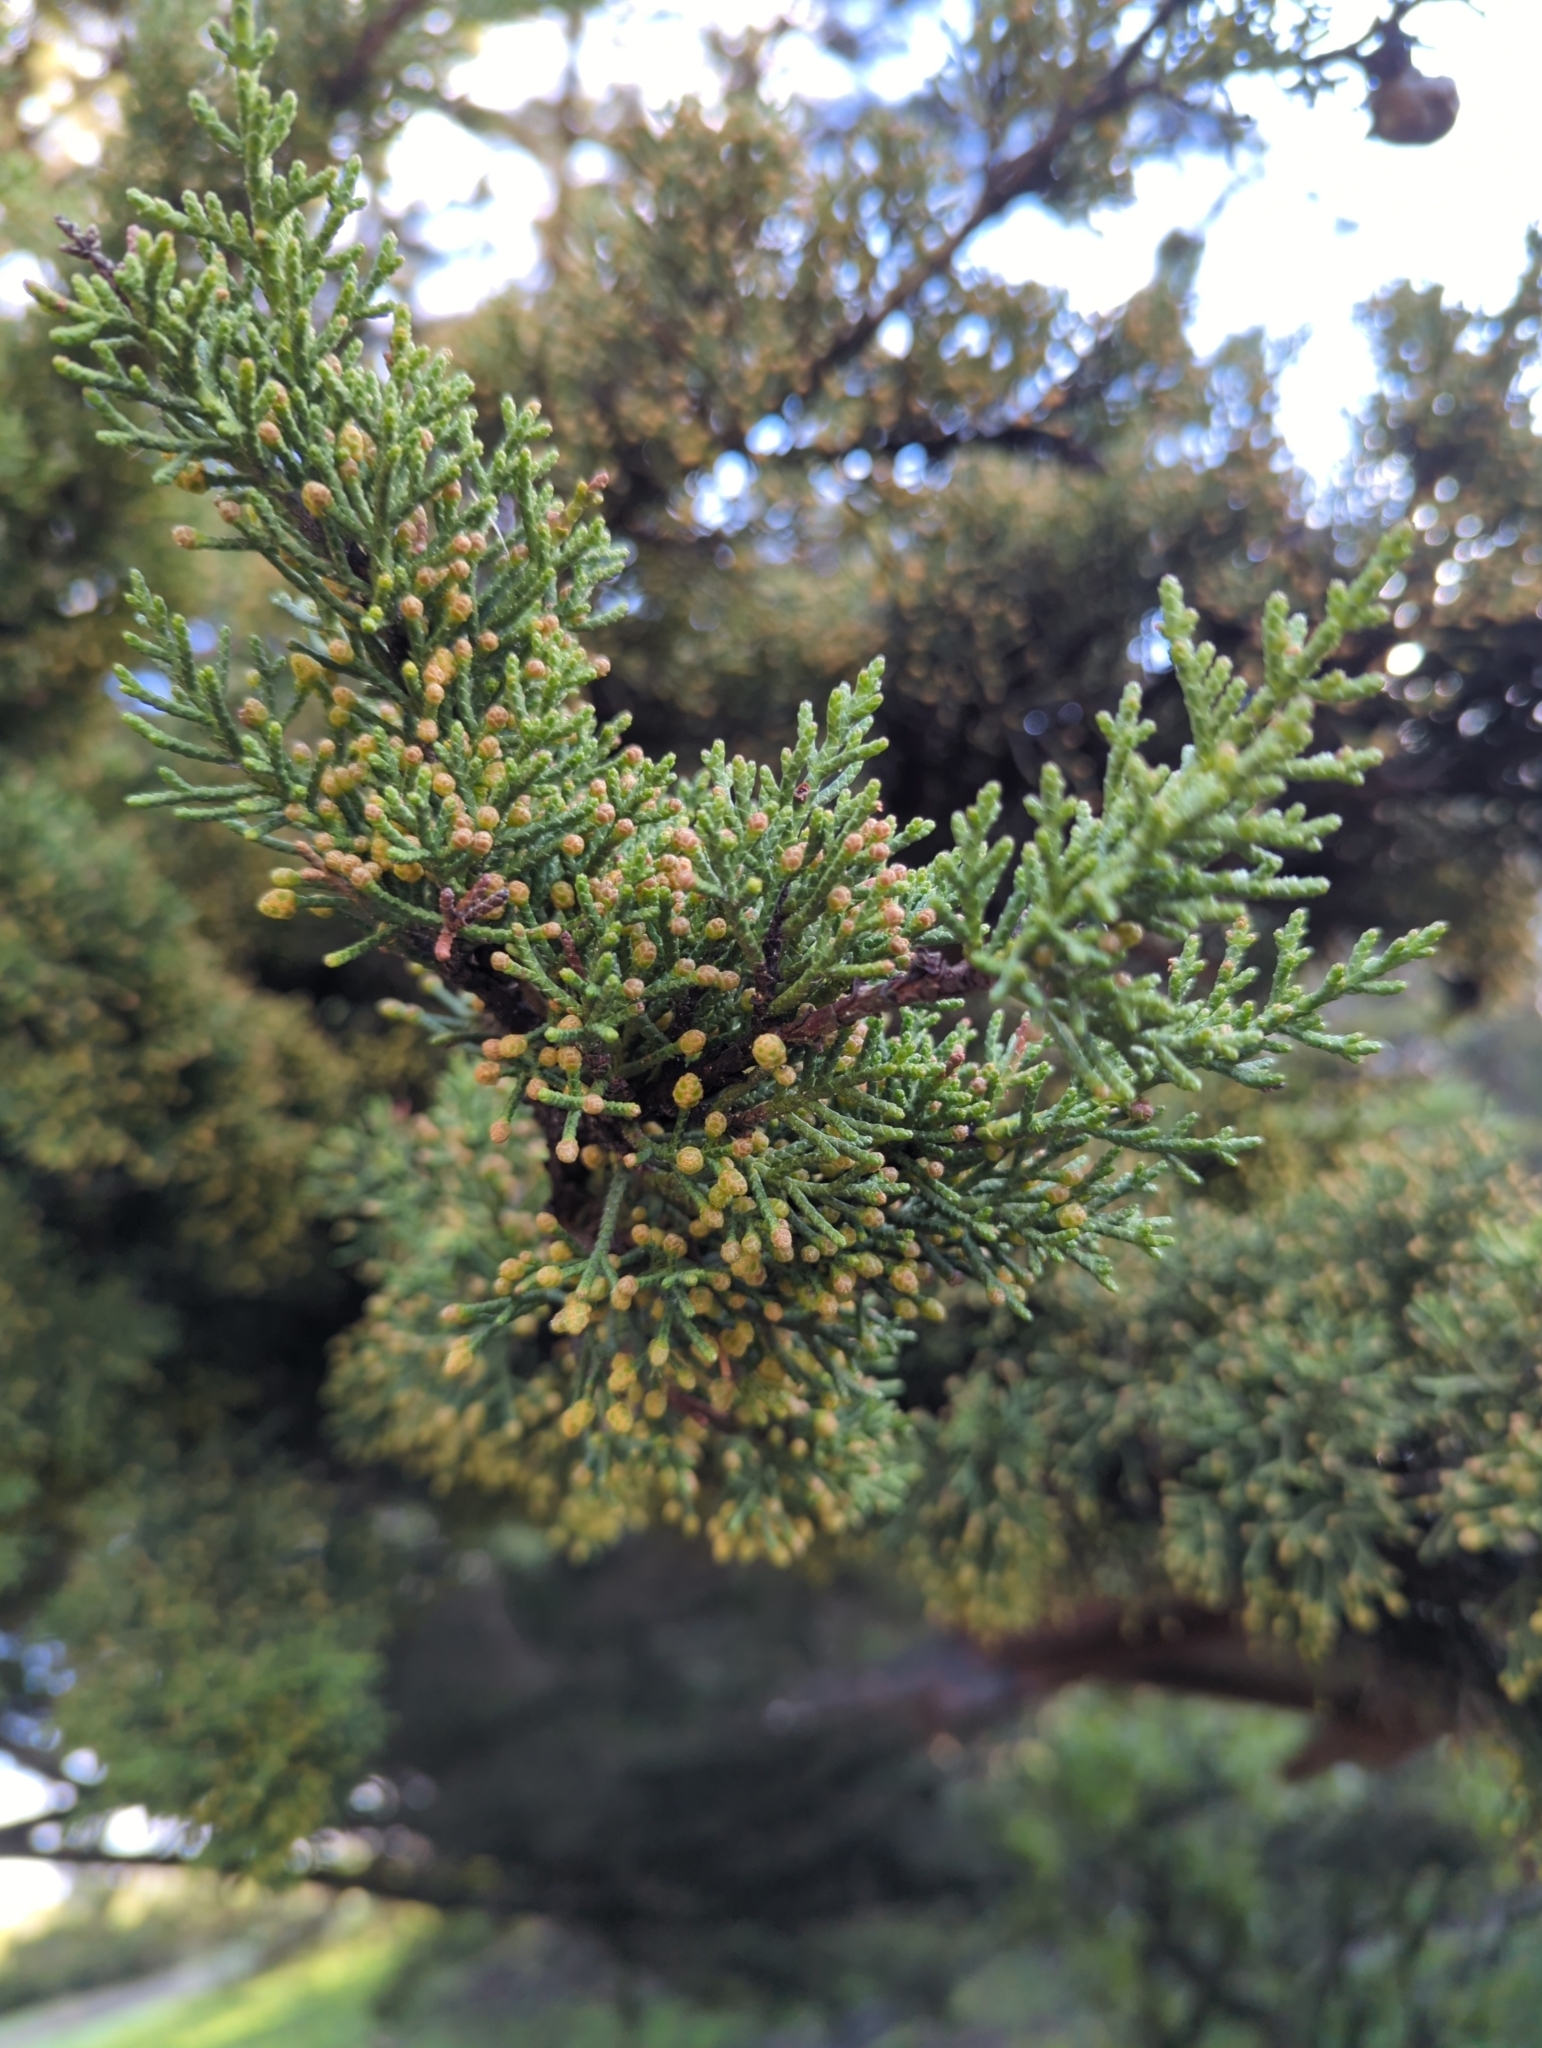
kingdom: Plantae
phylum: Tracheophyta
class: Pinopsida
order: Pinales
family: Cupressaceae
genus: Cupressus
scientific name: Cupressus macrocarpa
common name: Monterey cypress
